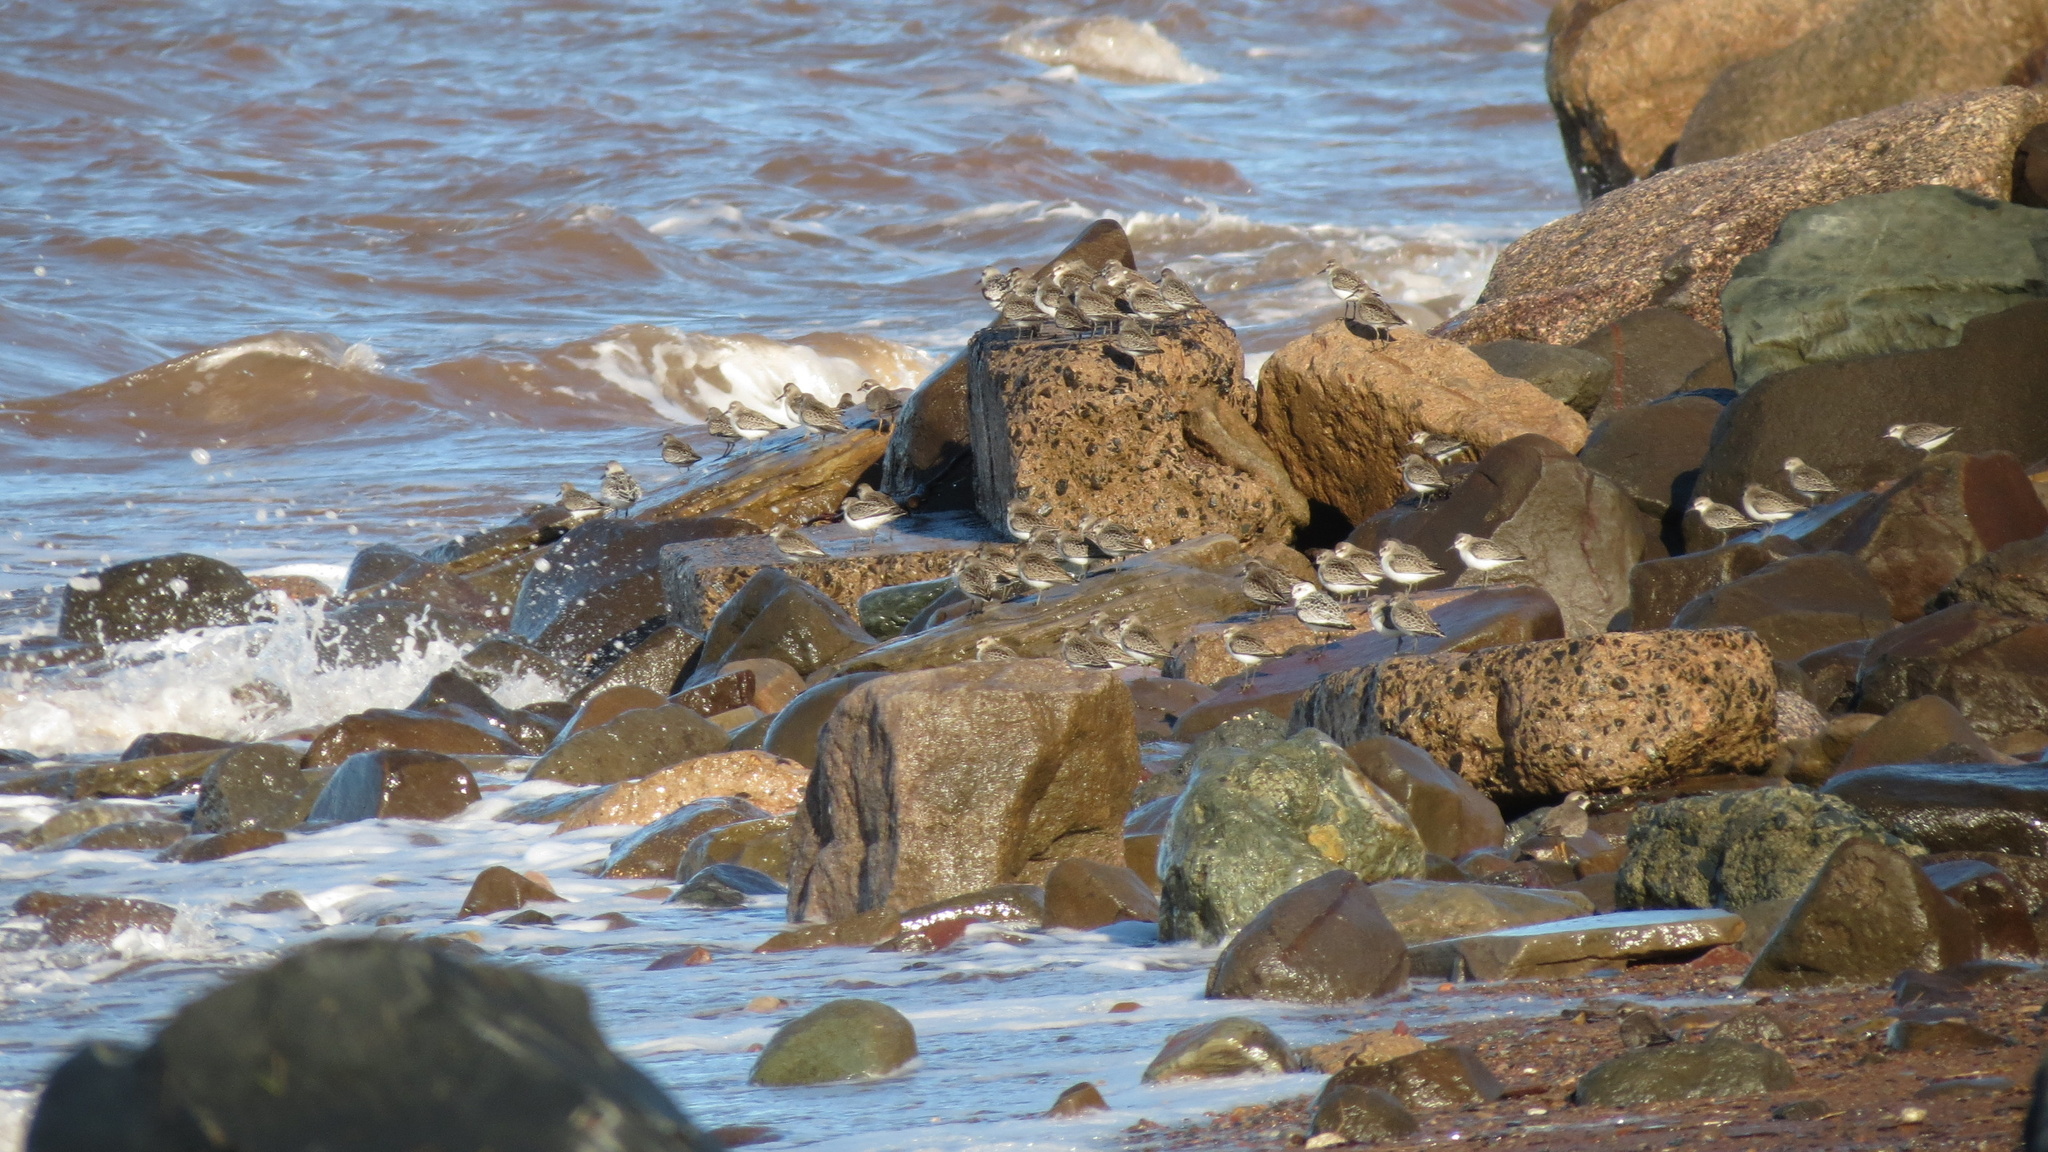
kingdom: Animalia
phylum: Chordata
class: Aves
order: Charadriiformes
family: Scolopacidae
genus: Calidris
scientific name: Calidris pusilla
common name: Semipalmated sandpiper
